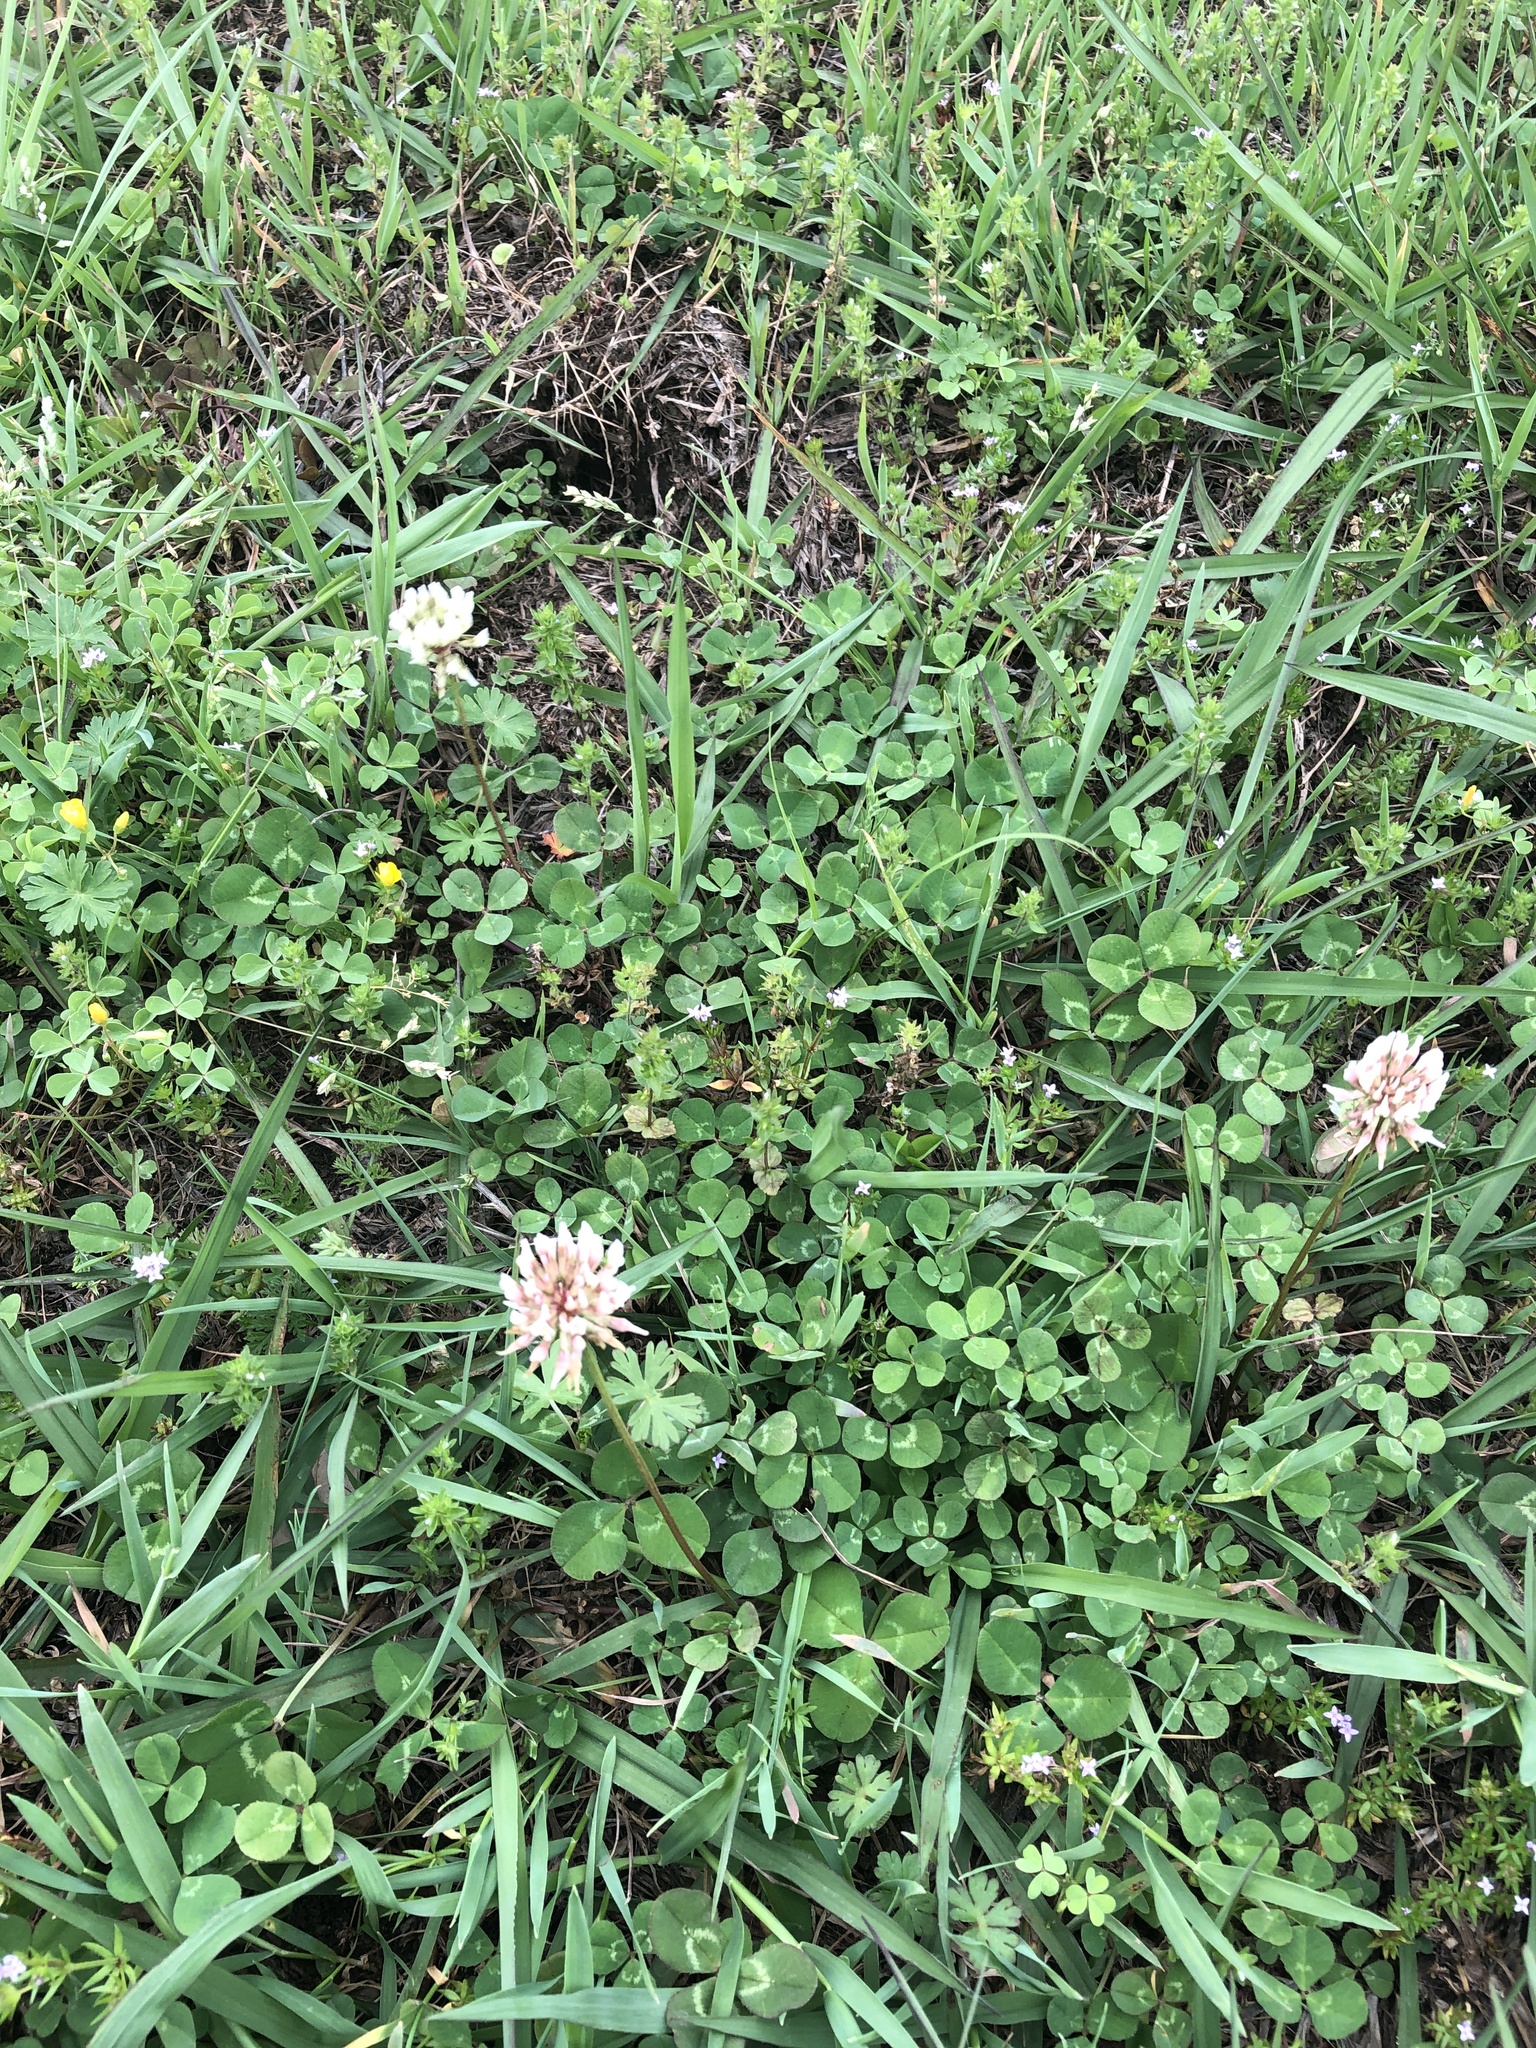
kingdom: Plantae
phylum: Tracheophyta
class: Magnoliopsida
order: Fabales
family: Fabaceae
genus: Trifolium
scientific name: Trifolium repens
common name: White clover
